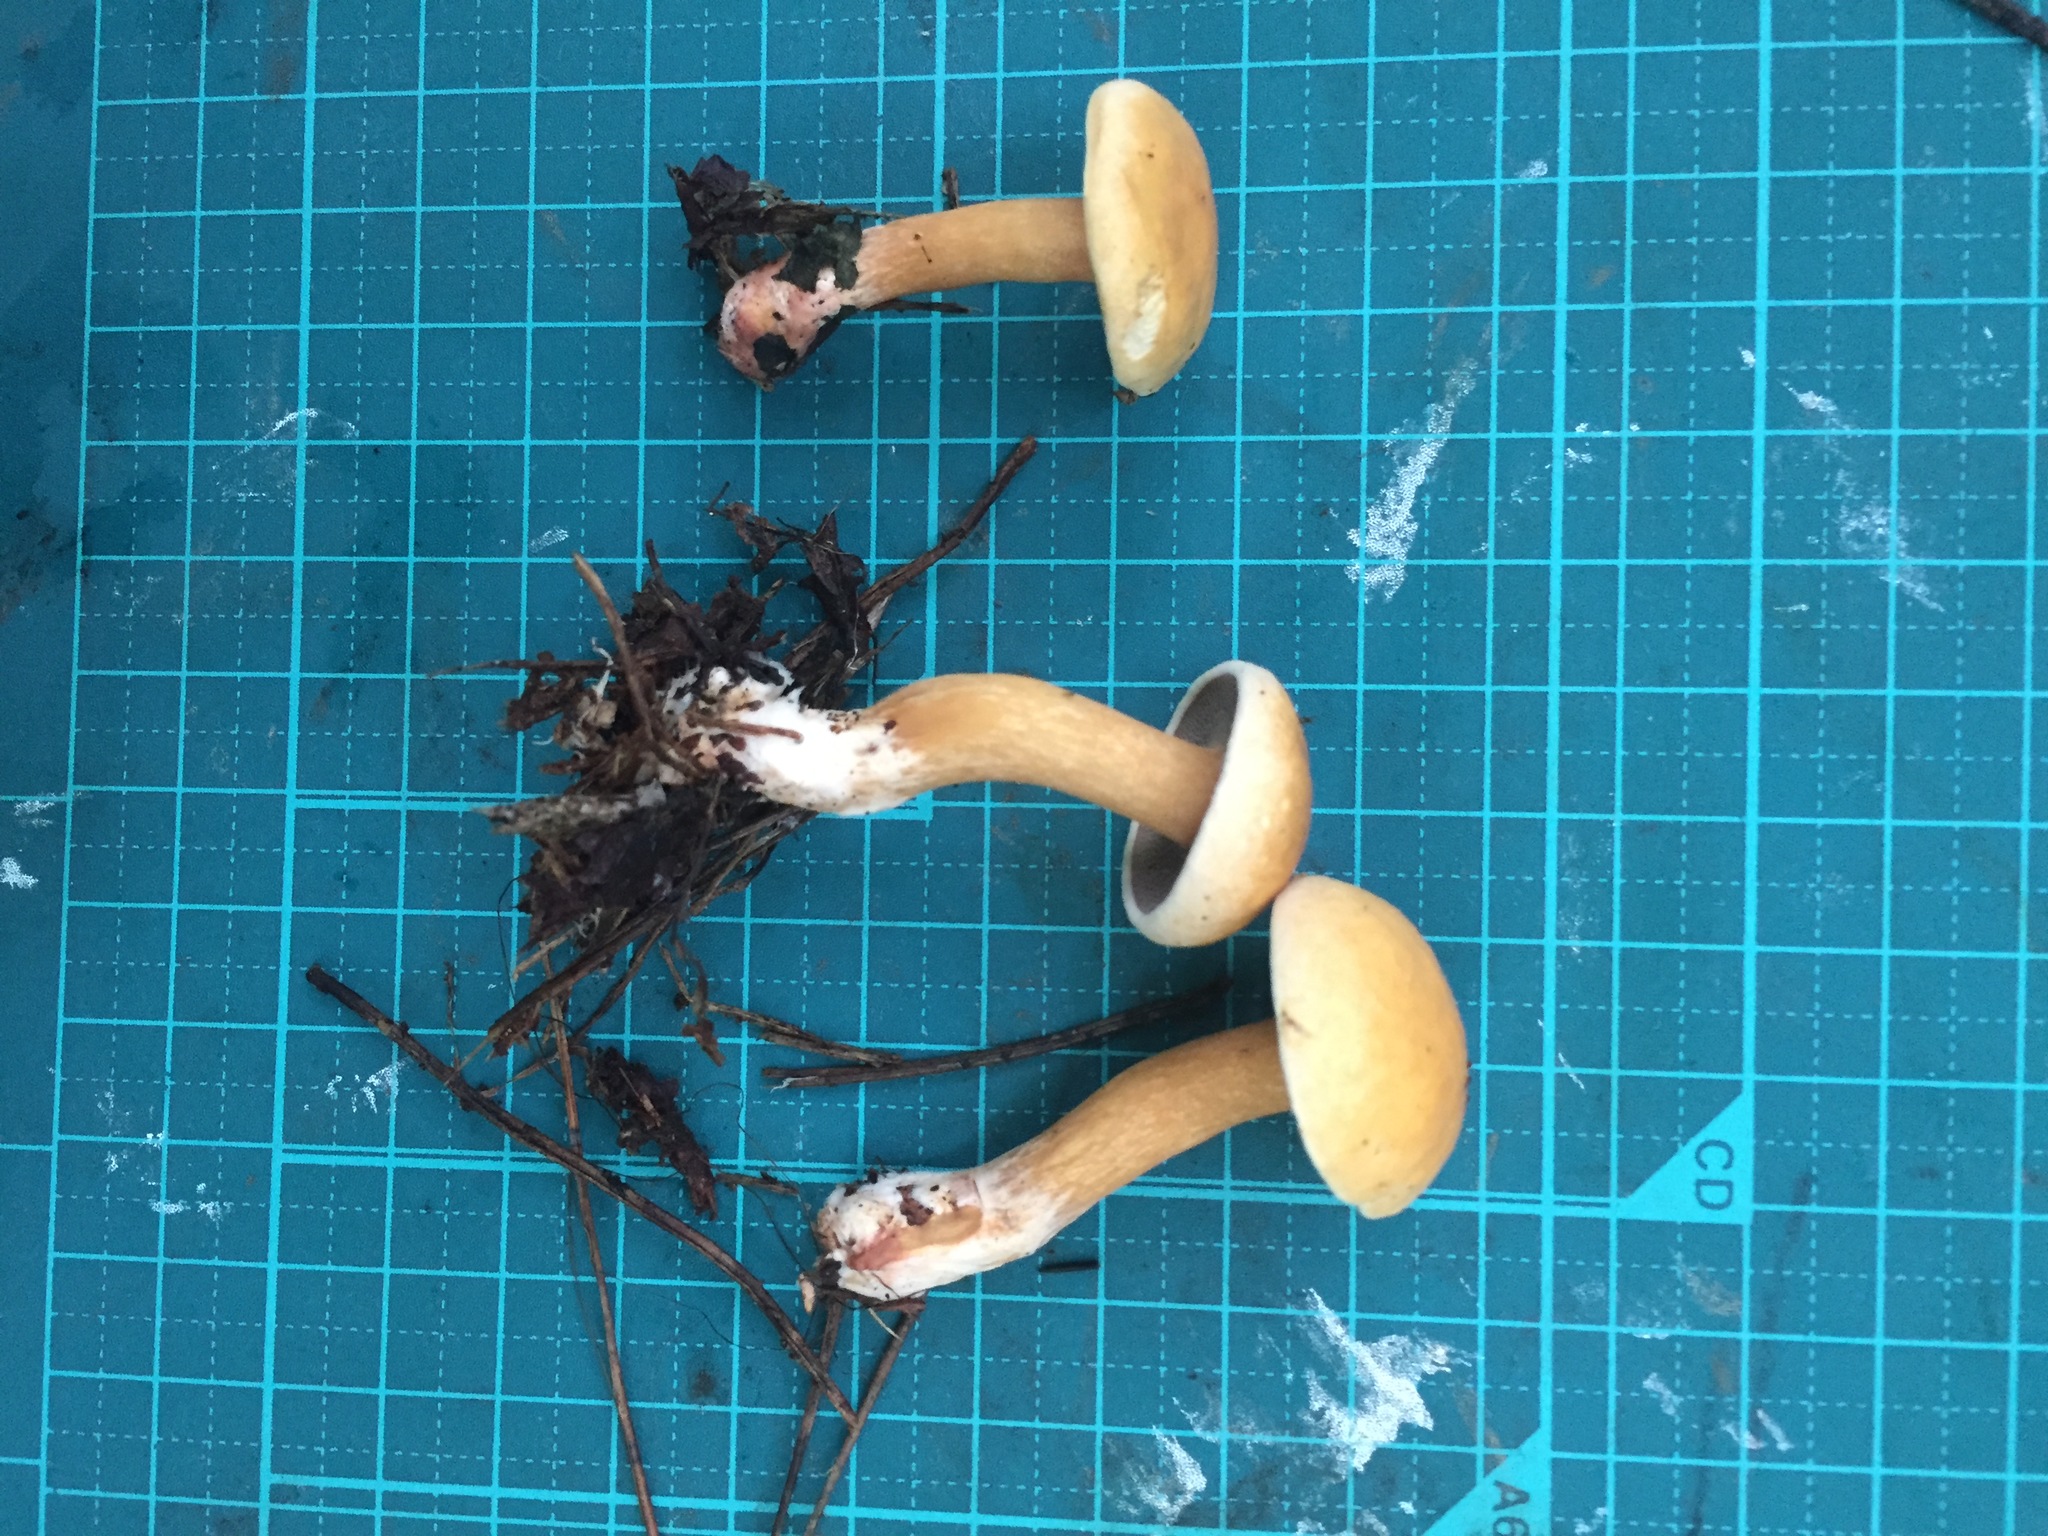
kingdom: Fungi
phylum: Basidiomycota
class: Agaricomycetes
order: Boletales
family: Suillaceae
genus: Suillus
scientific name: Suillus bovinus
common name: Bovine bolete
